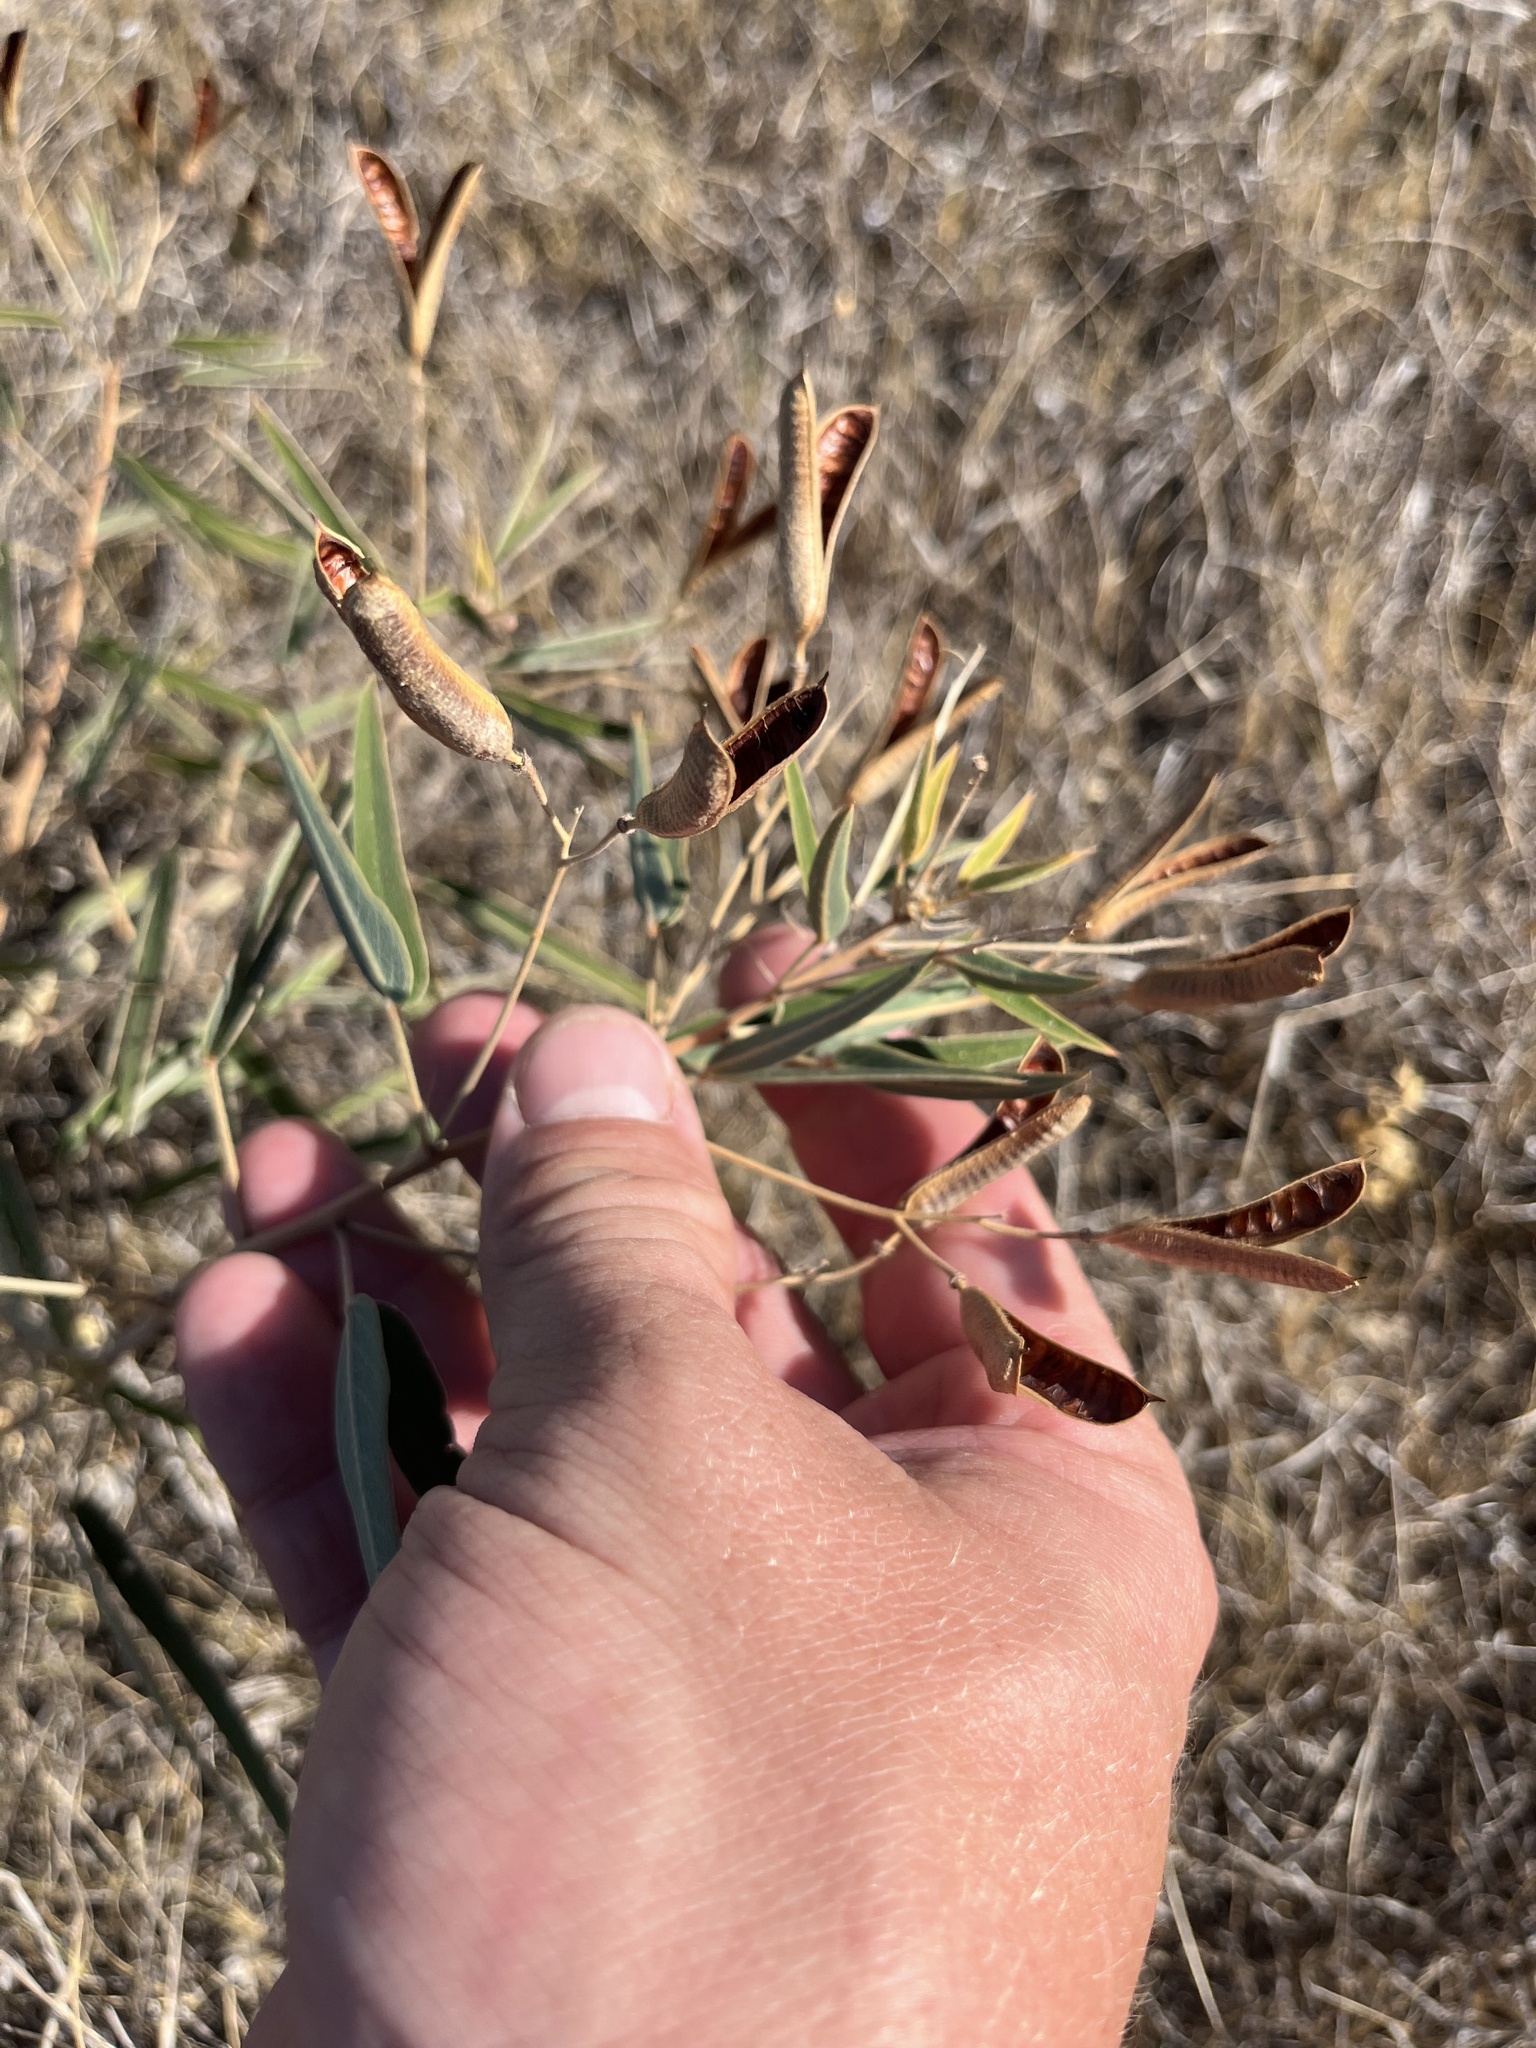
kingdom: Plantae
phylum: Tracheophyta
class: Magnoliopsida
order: Fabales
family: Fabaceae
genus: Senna
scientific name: Senna roemeriana
